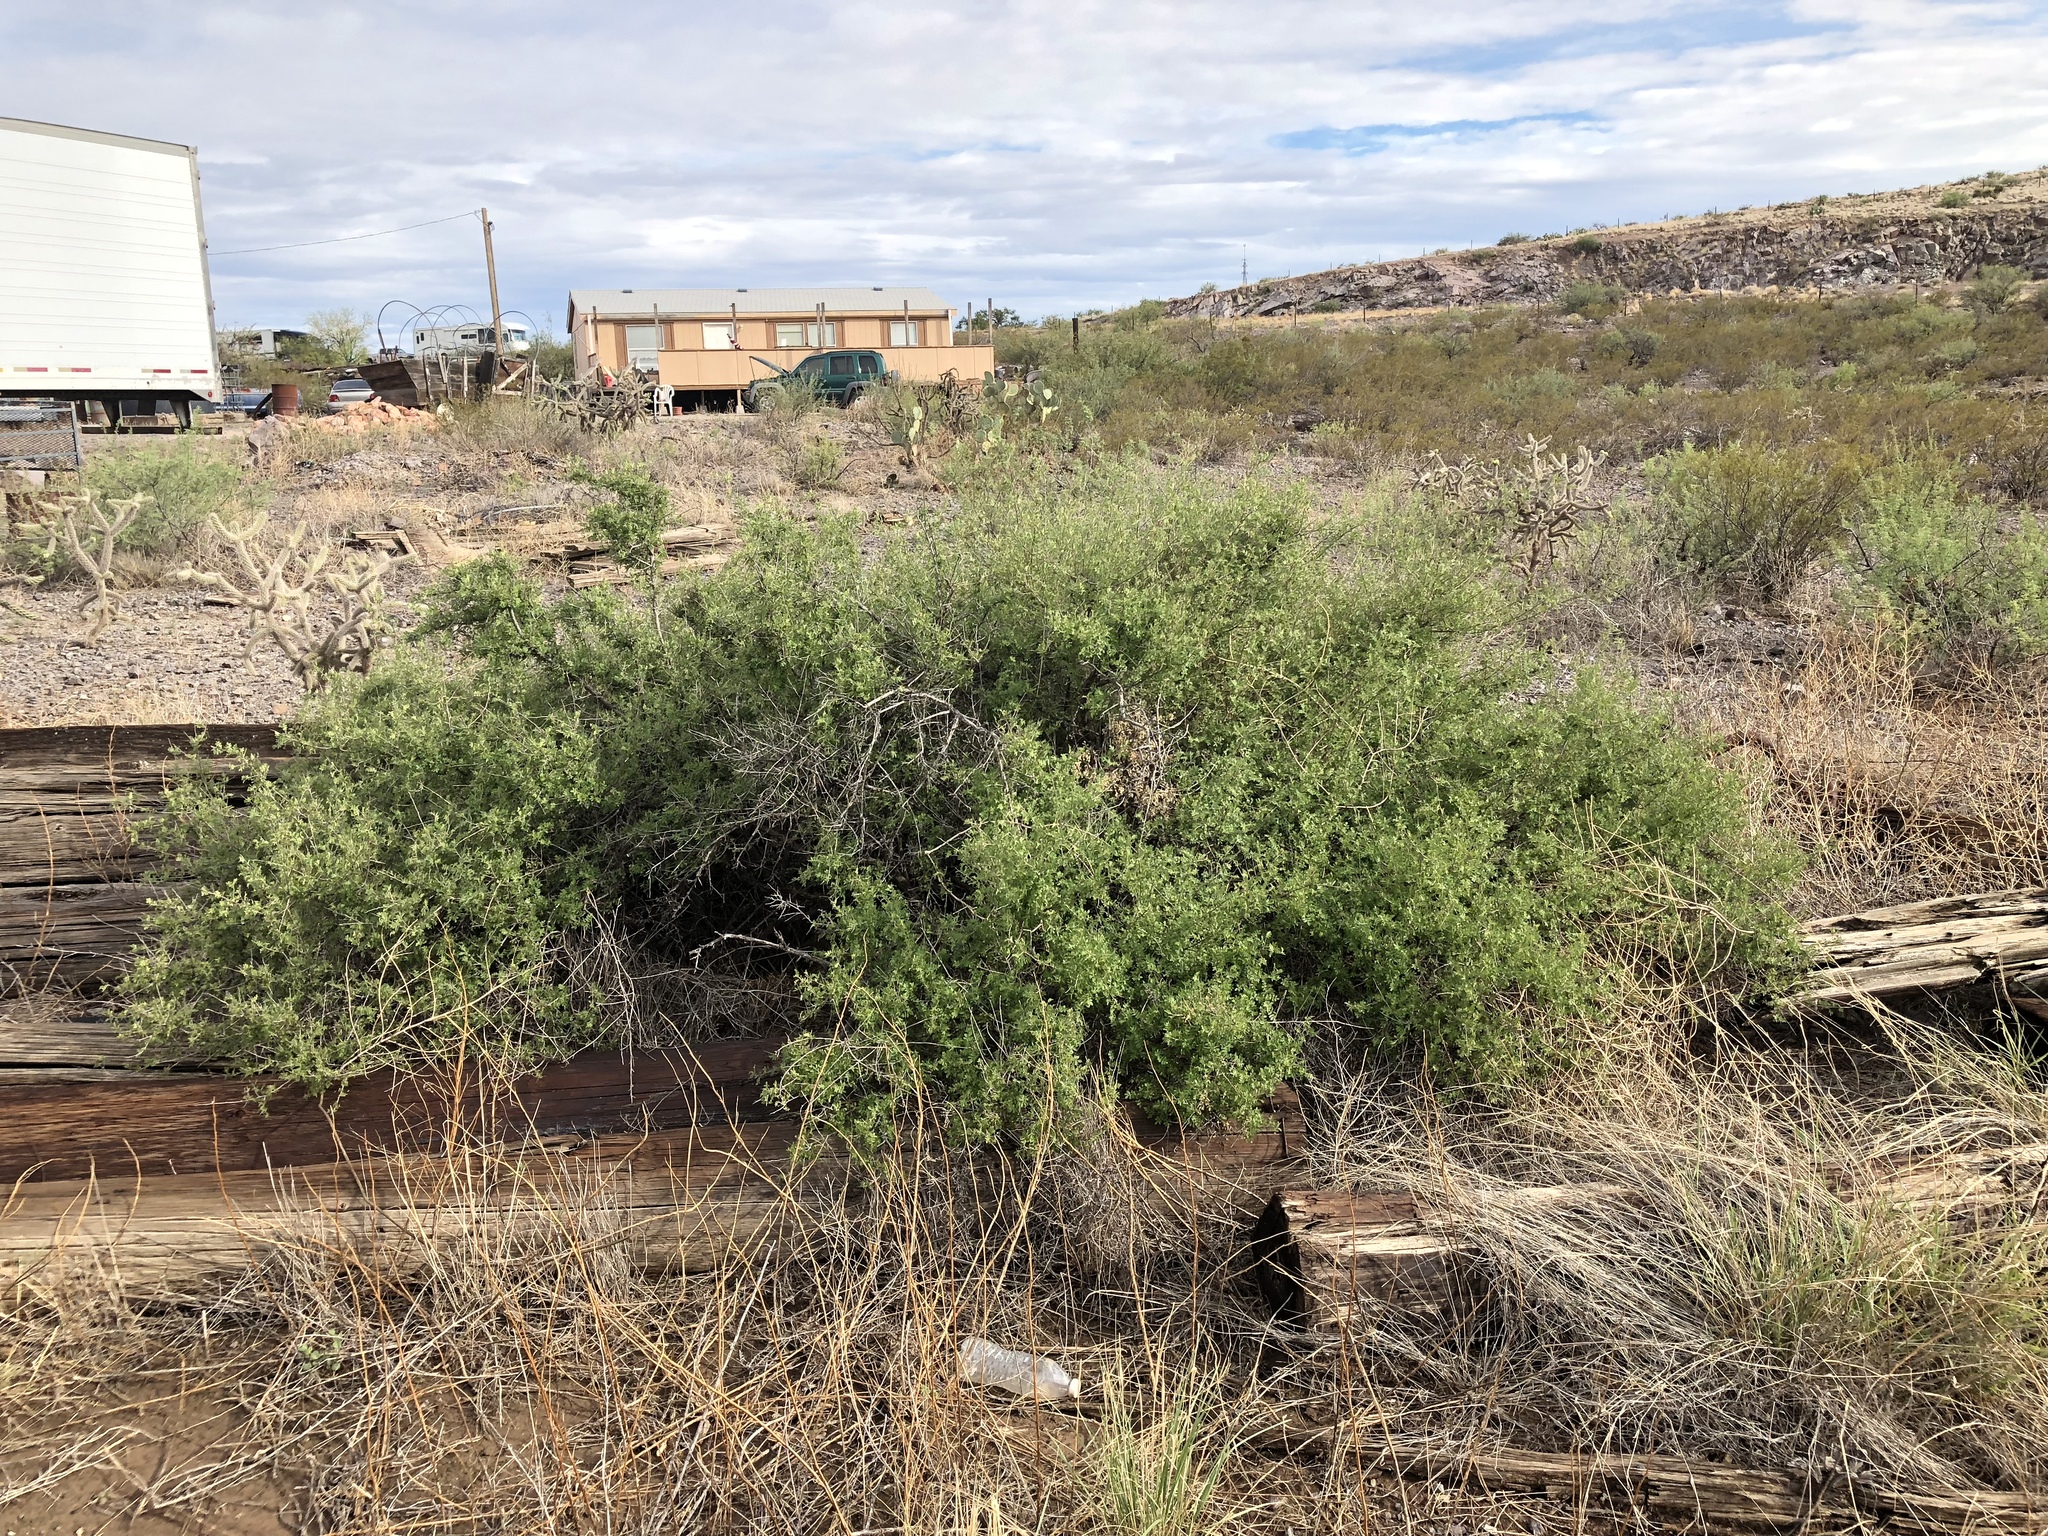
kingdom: Plantae
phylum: Tracheophyta
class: Magnoliopsida
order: Fabales
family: Fabaceae
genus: Senegalia
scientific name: Senegalia greggii
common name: Texas-mimosa
